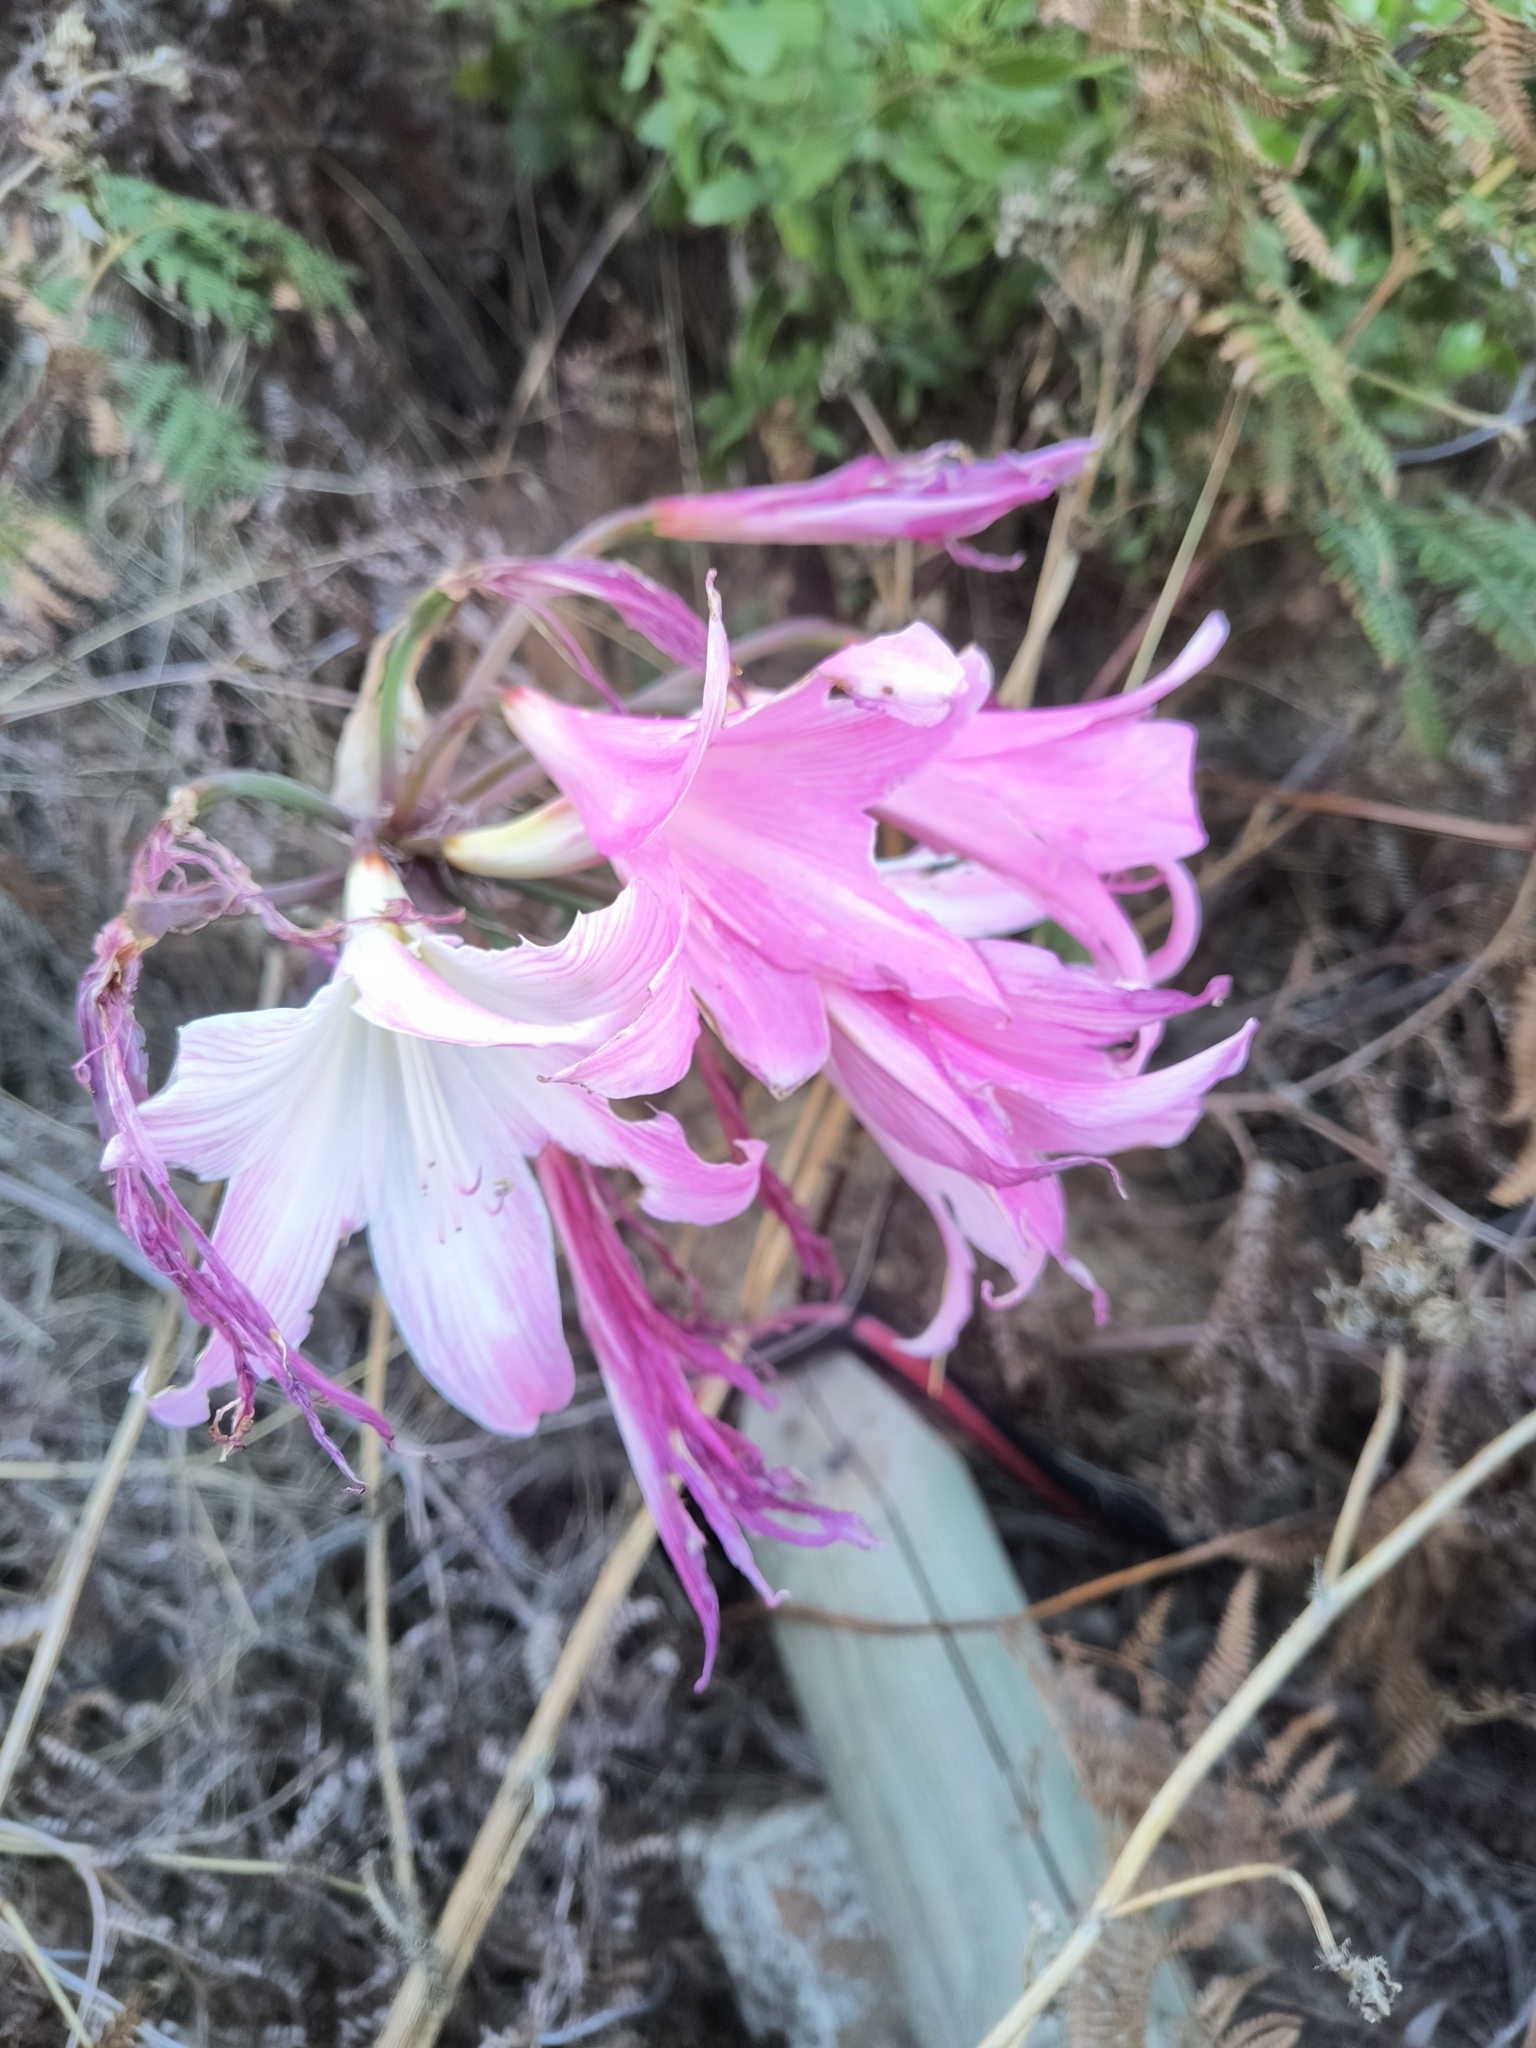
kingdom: Plantae
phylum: Tracheophyta
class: Liliopsida
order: Asparagales
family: Amaryllidaceae
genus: Amaryllis
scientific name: Amaryllis belladonna
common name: Jersey lily
